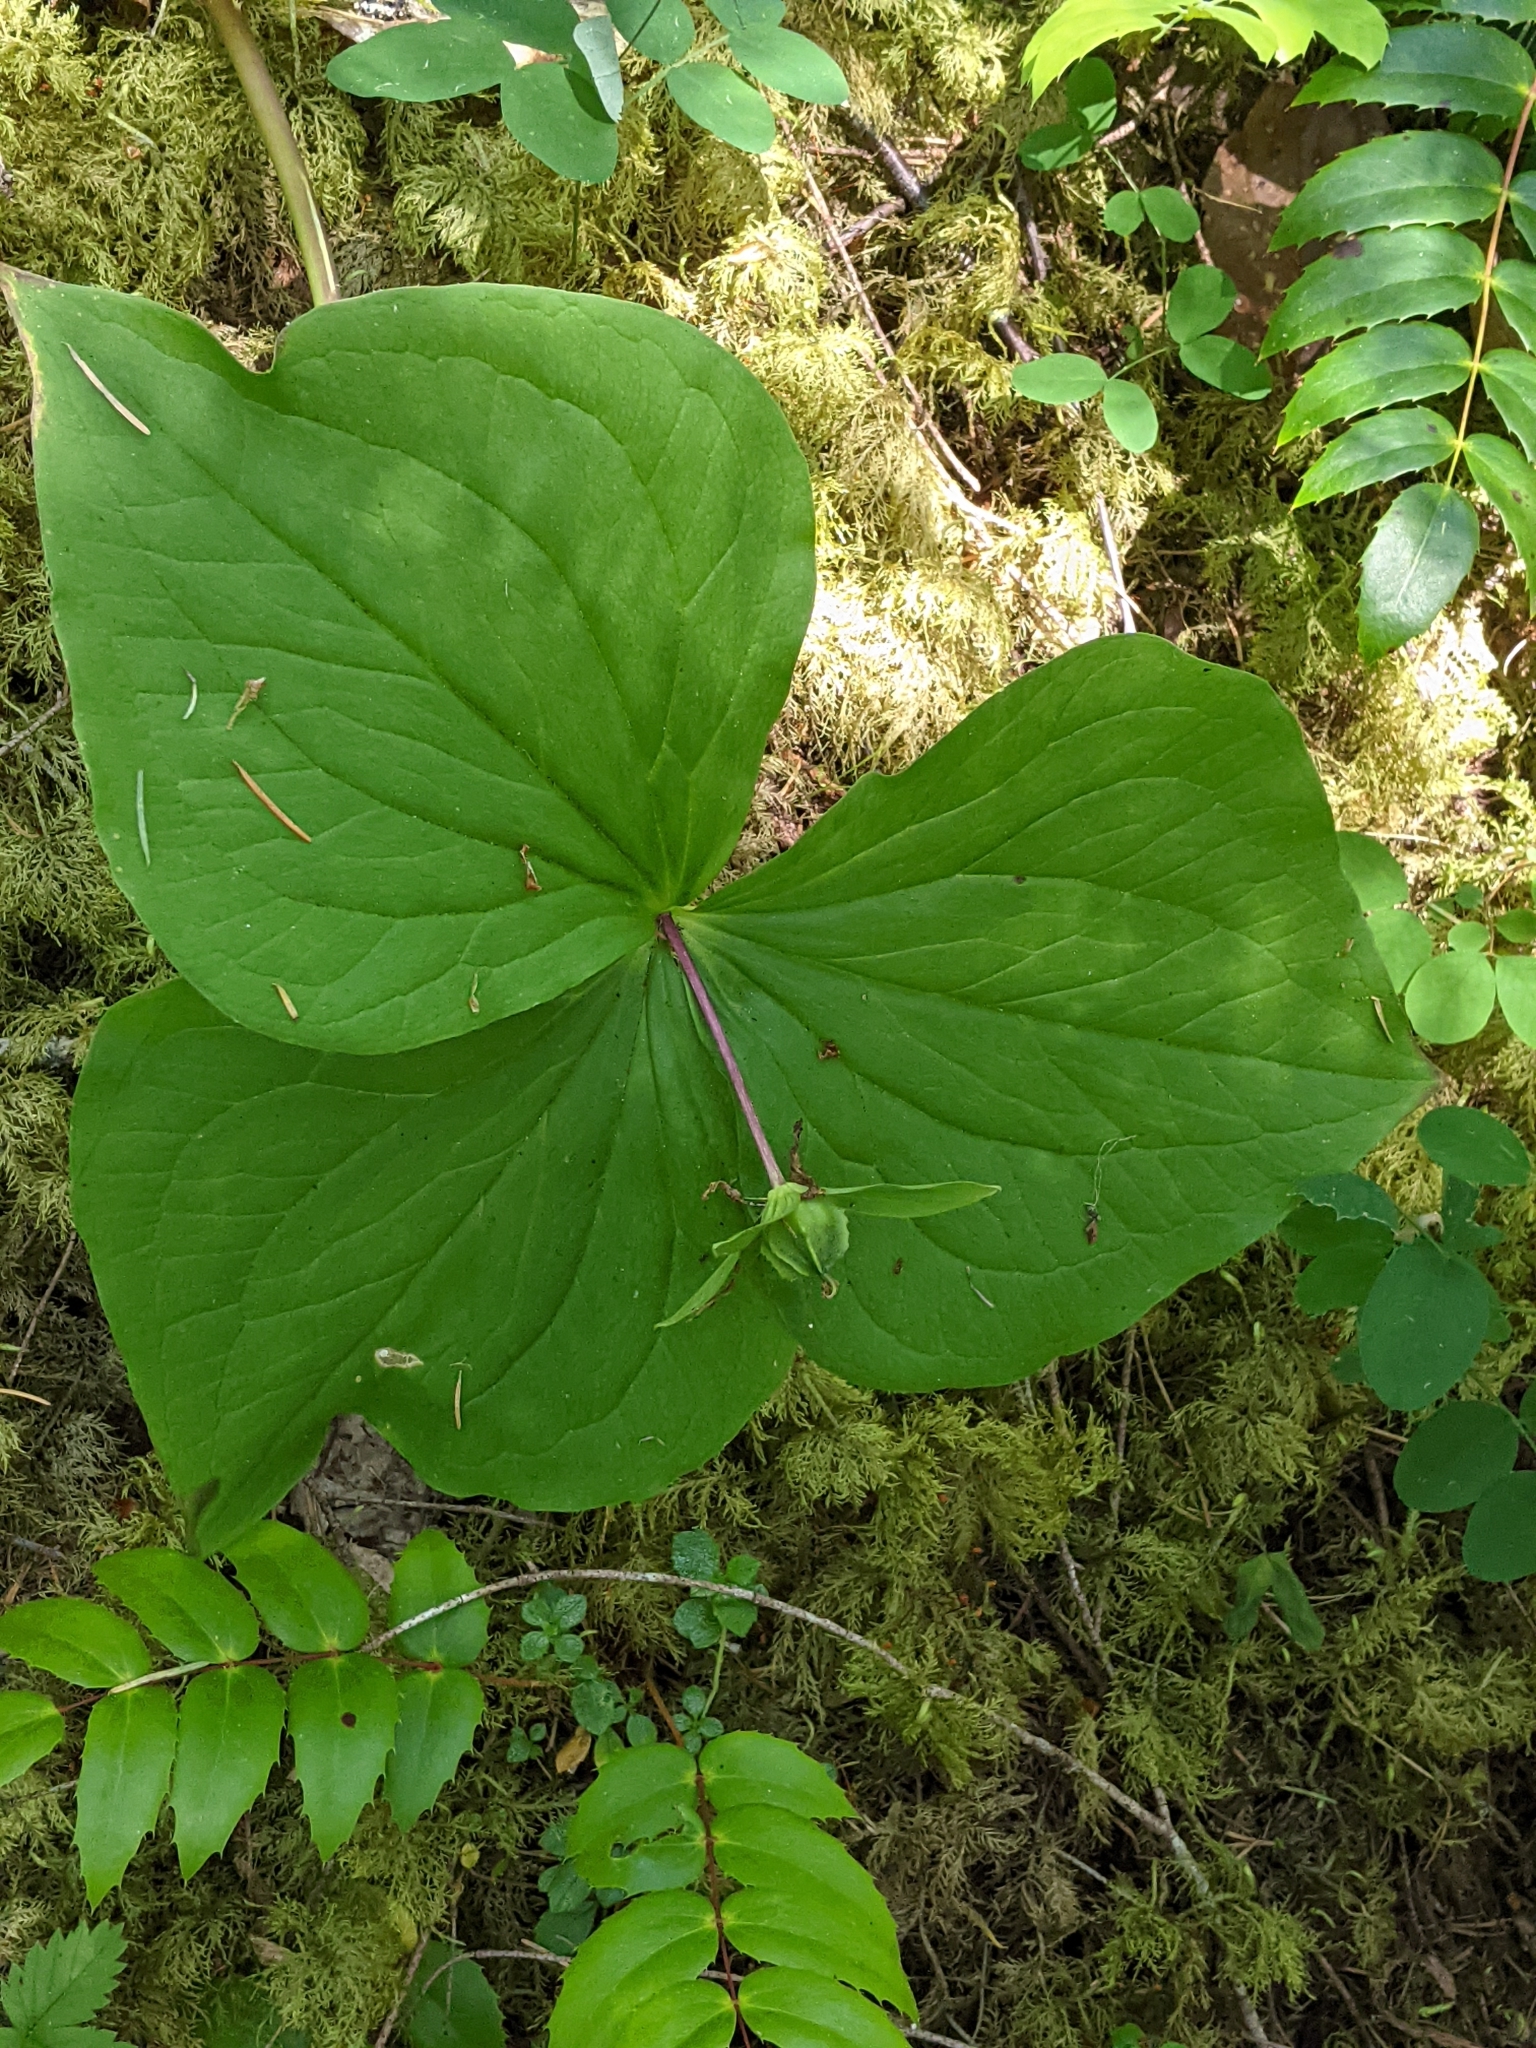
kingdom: Plantae
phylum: Tracheophyta
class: Liliopsida
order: Liliales
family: Melanthiaceae
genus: Trillium
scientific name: Trillium ovatum
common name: Pacific trillium
